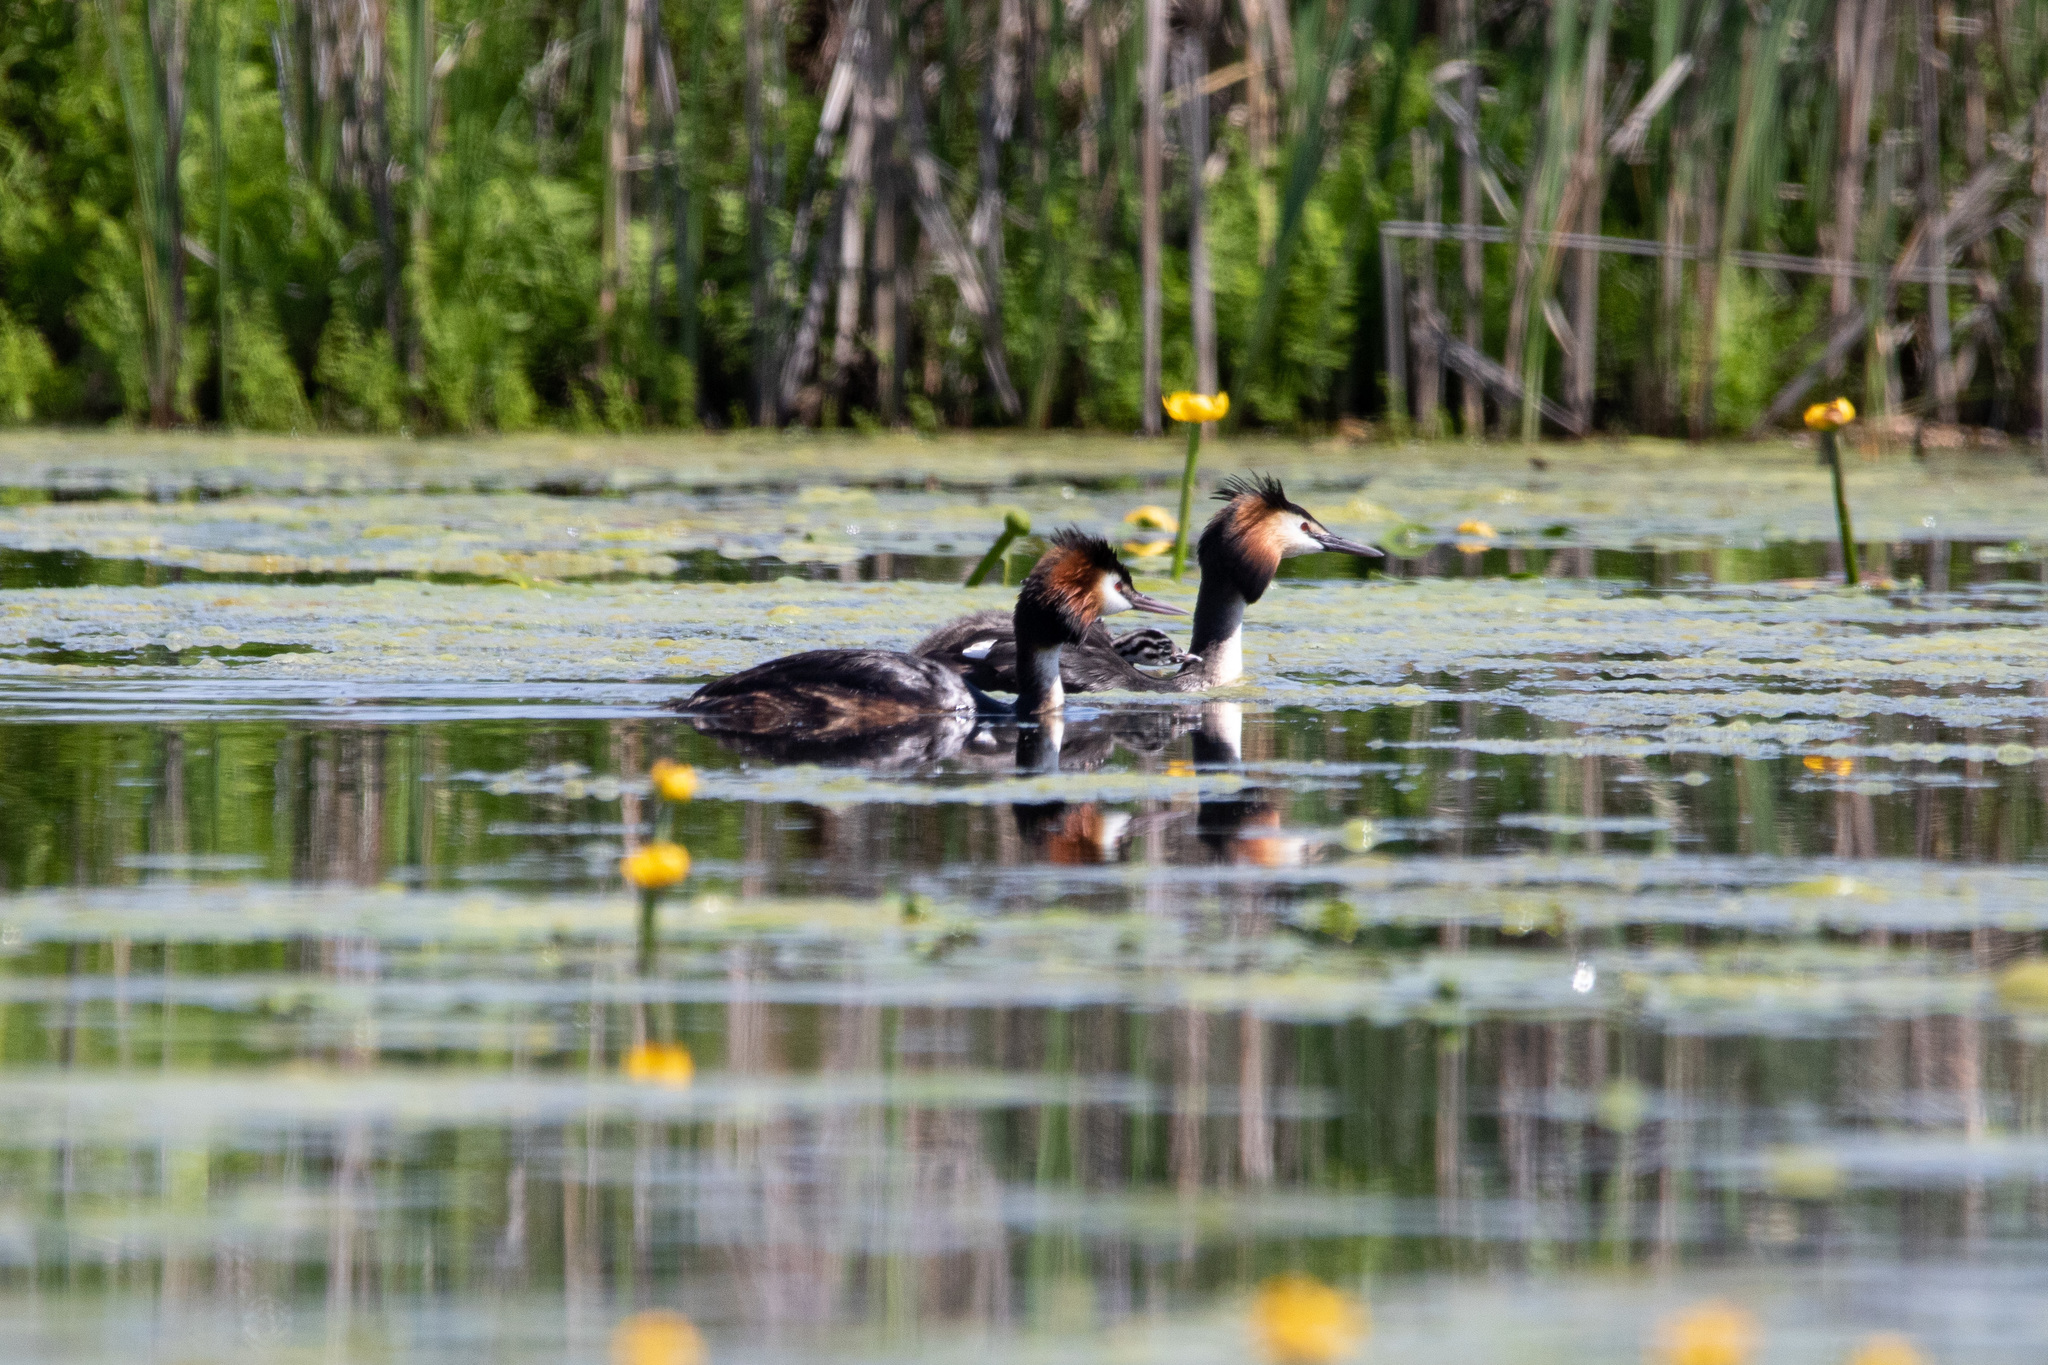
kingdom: Animalia
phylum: Chordata
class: Aves
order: Podicipediformes
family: Podicipedidae
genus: Podiceps
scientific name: Podiceps cristatus
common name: Great crested grebe
